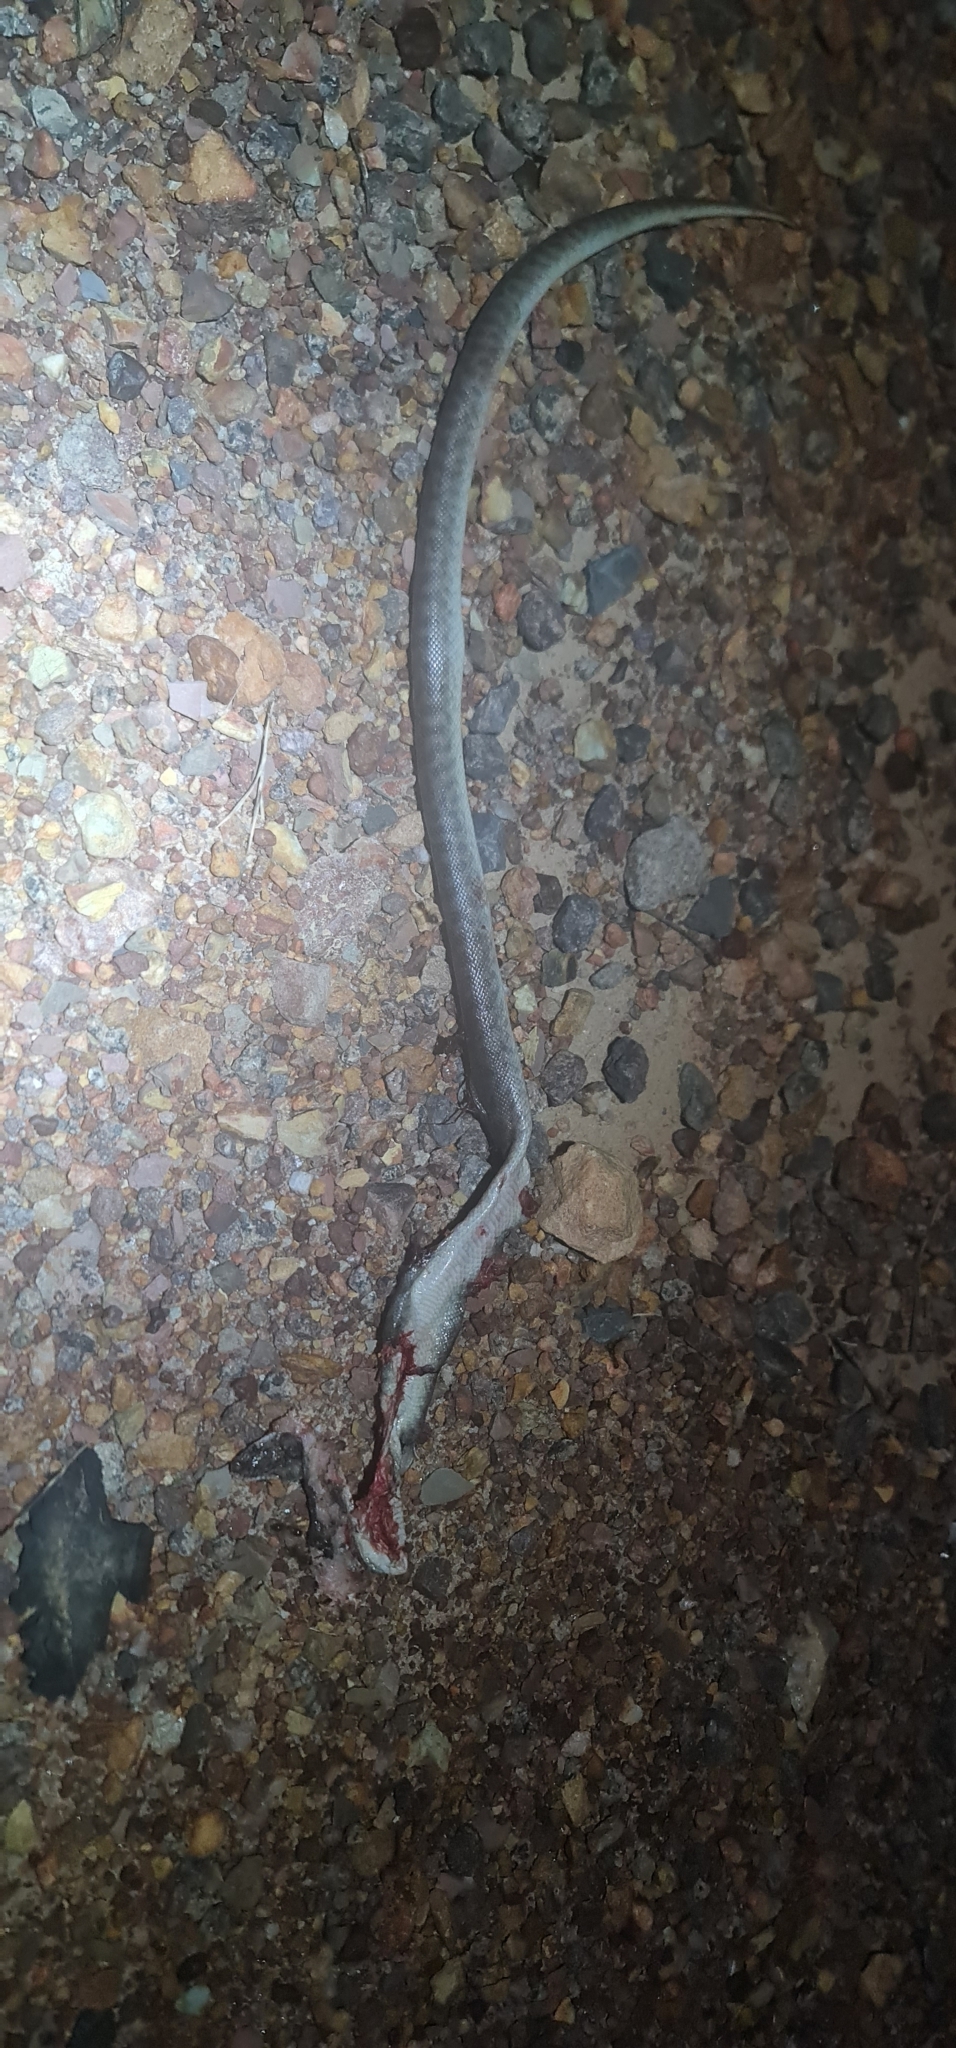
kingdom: Animalia
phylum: Chordata
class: Squamata
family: Pythonidae
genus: Antaresia
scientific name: Antaresia childreni
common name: Children's python
